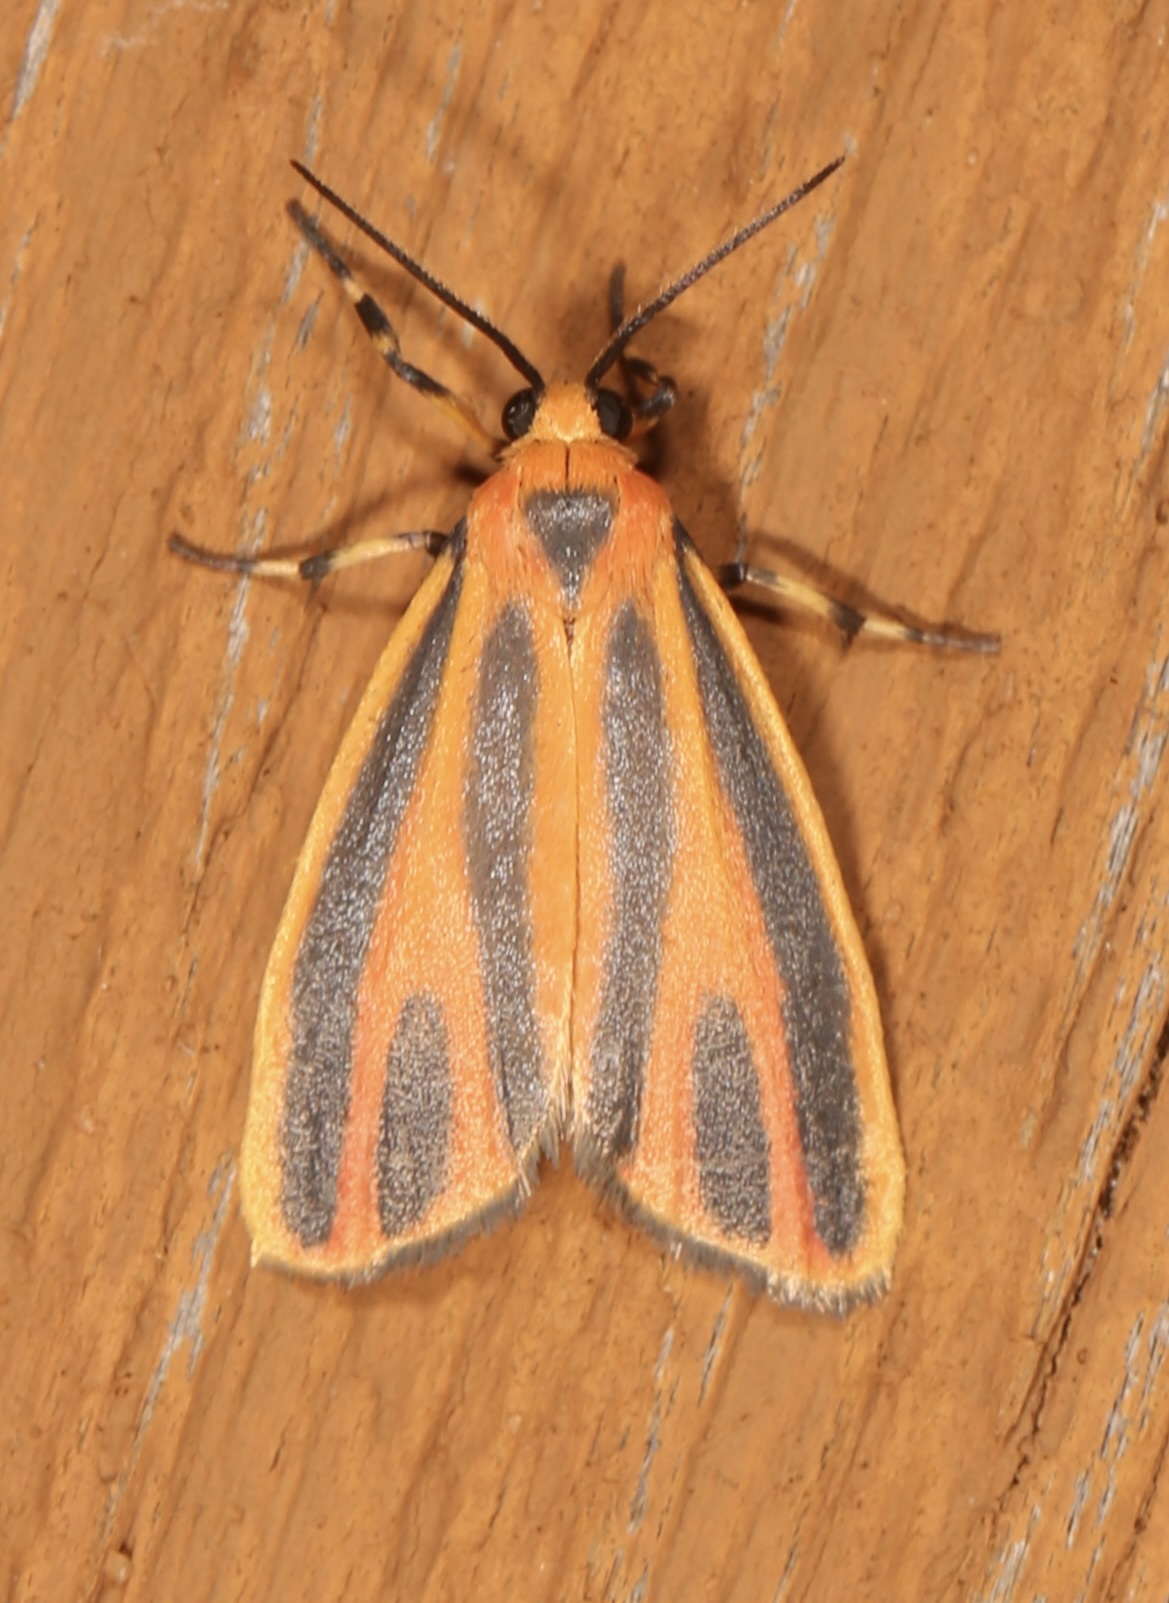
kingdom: Animalia
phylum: Arthropoda
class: Insecta
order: Lepidoptera
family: Erebidae
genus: Hypoprepia
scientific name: Hypoprepia fucosa
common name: Painted lichen moth
